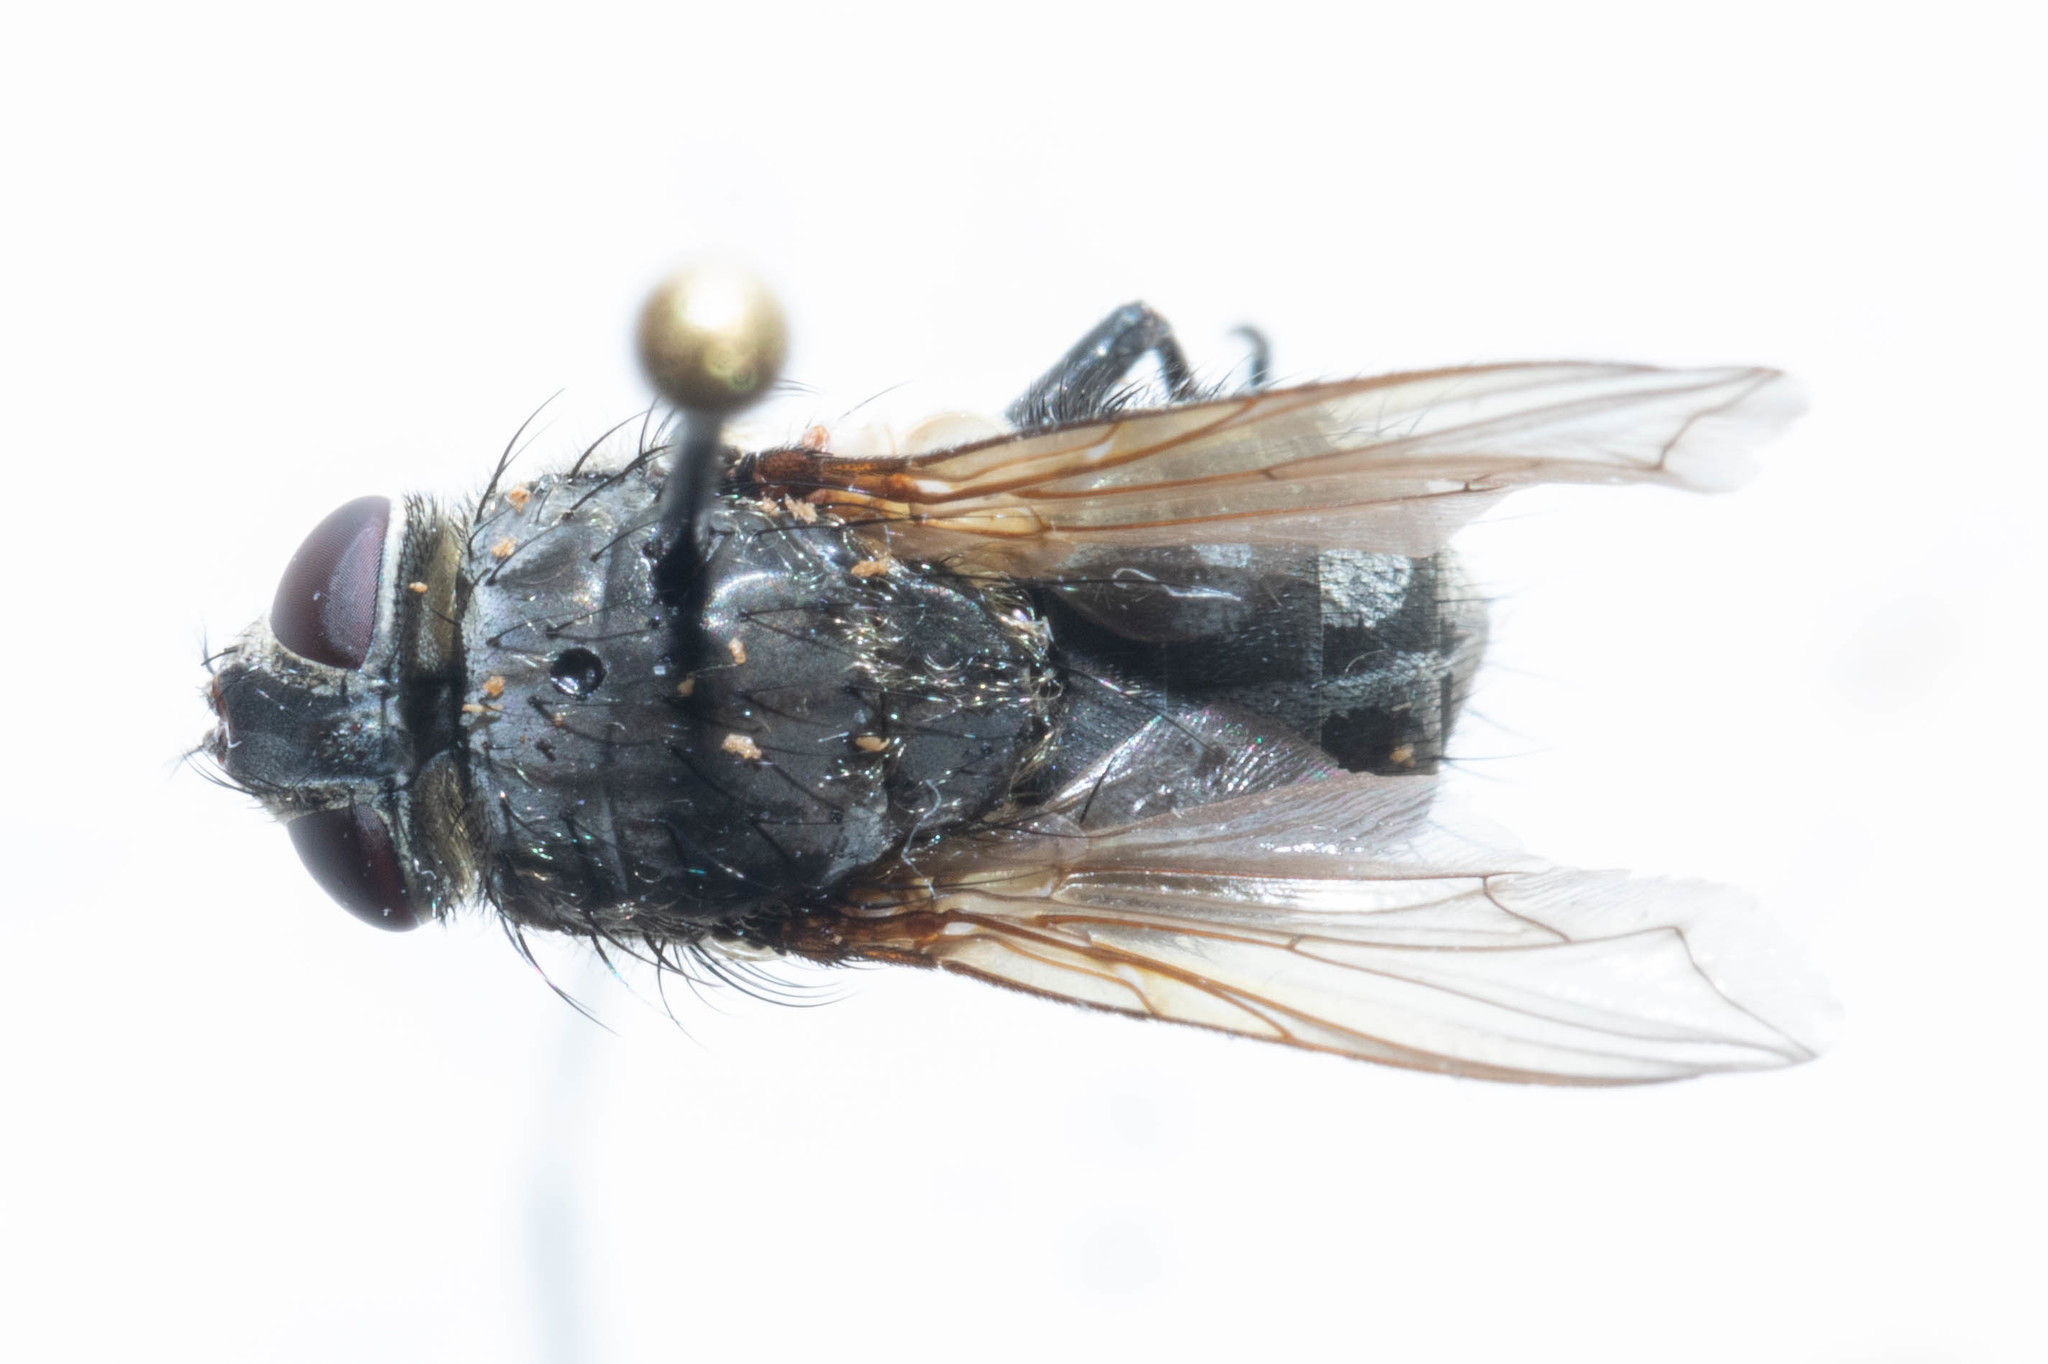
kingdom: Animalia
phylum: Arthropoda
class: Insecta
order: Diptera
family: Polleniidae
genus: Pollenia
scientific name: Pollenia intermedia
